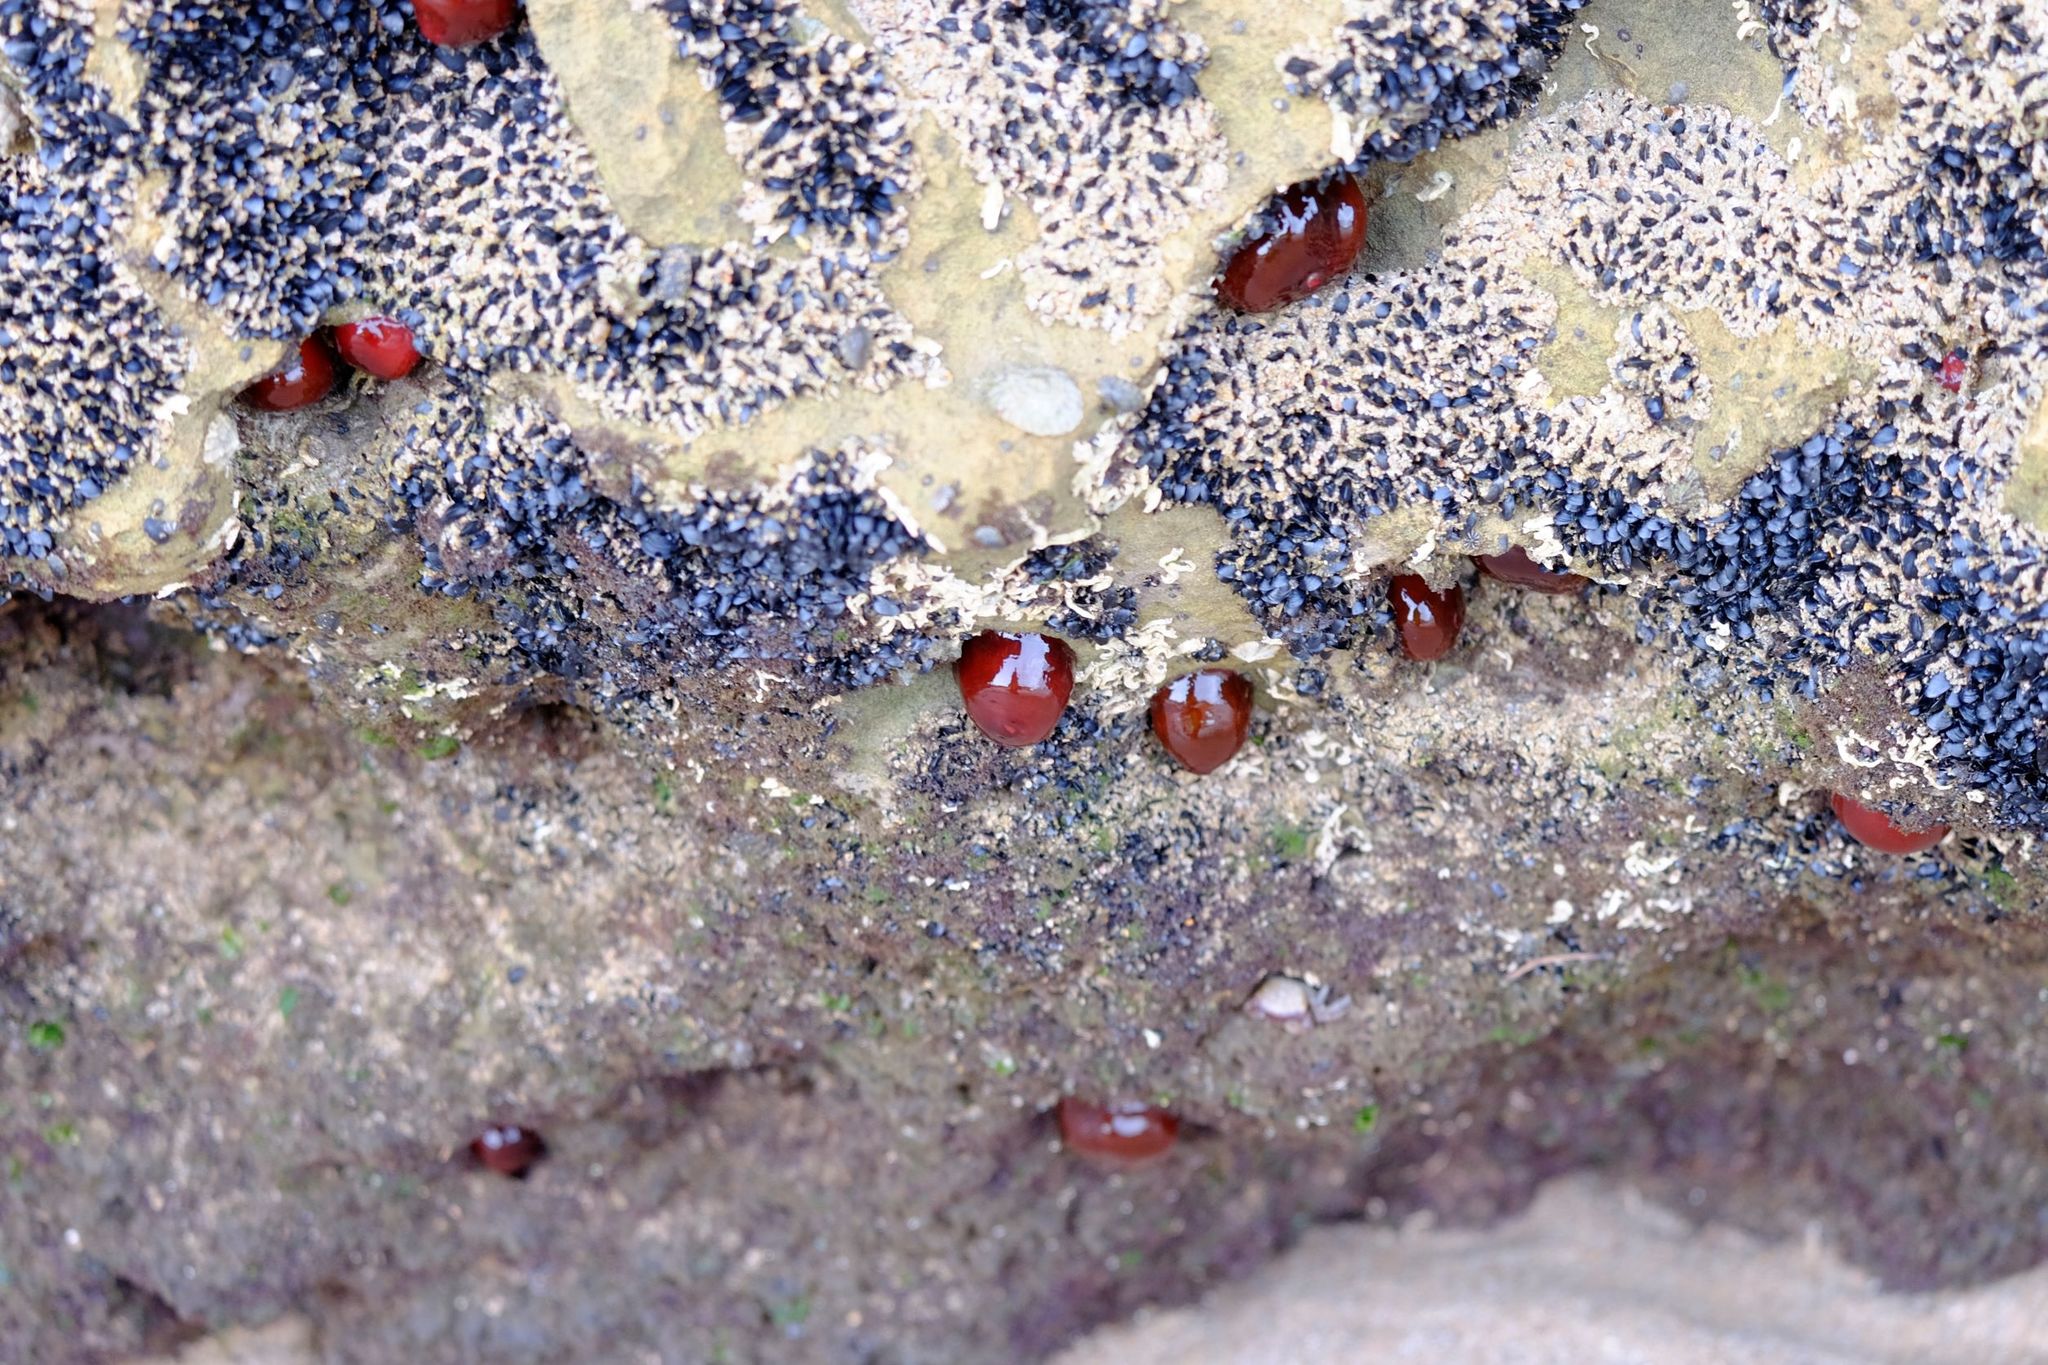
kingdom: Animalia
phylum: Cnidaria
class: Anthozoa
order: Actiniaria
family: Actiniidae
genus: Actinia
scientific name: Actinia tenebrosa
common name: Waratah anemone
